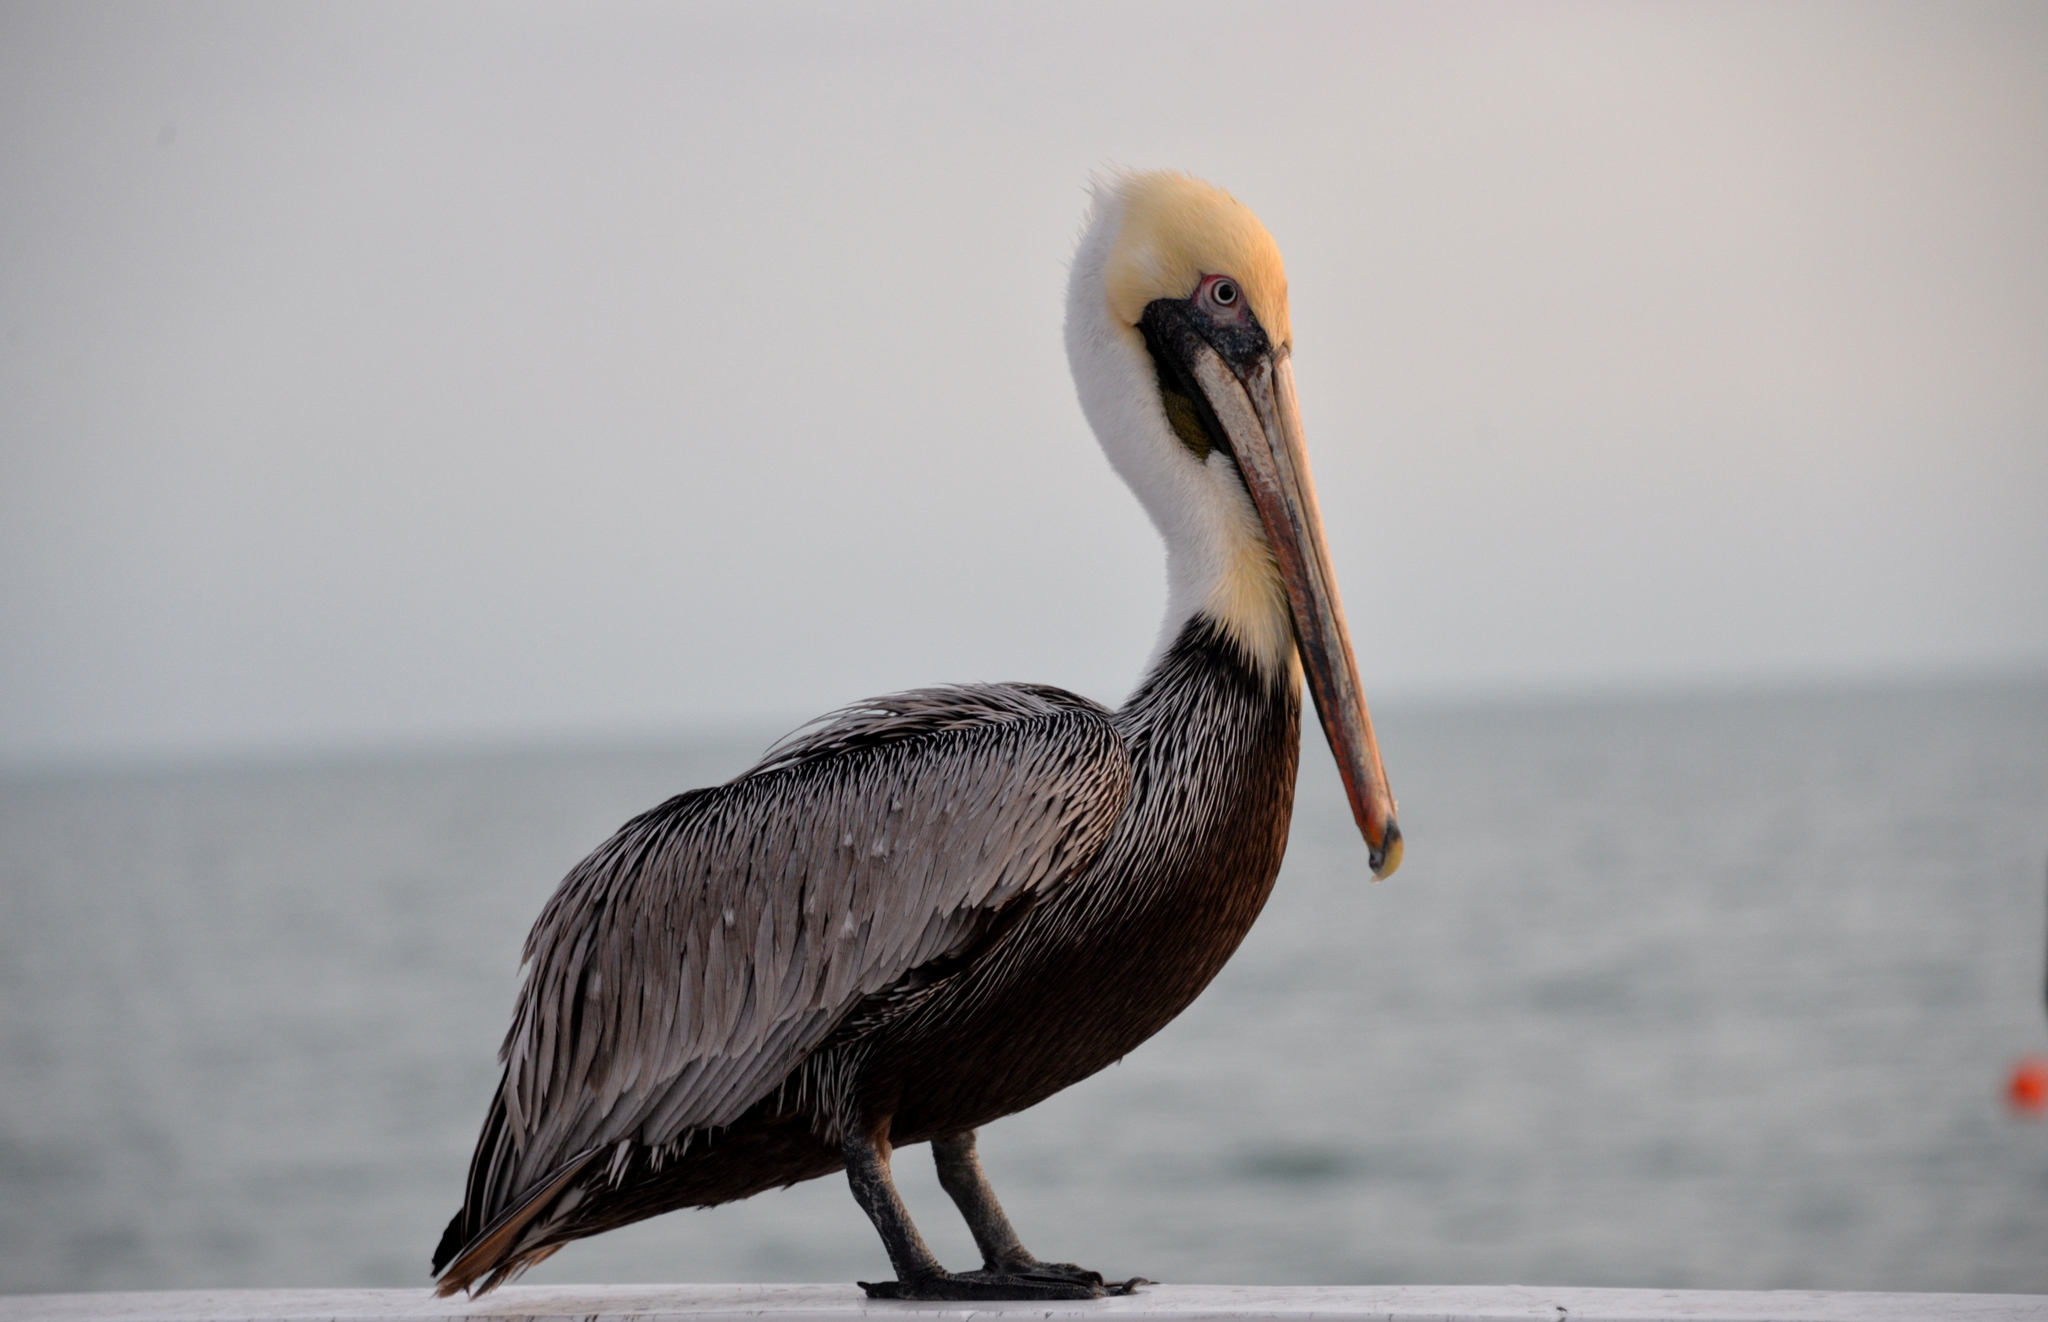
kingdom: Animalia
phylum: Chordata
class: Aves
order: Pelecaniformes
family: Pelecanidae
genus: Pelecanus
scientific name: Pelecanus occidentalis
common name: Brown pelican
